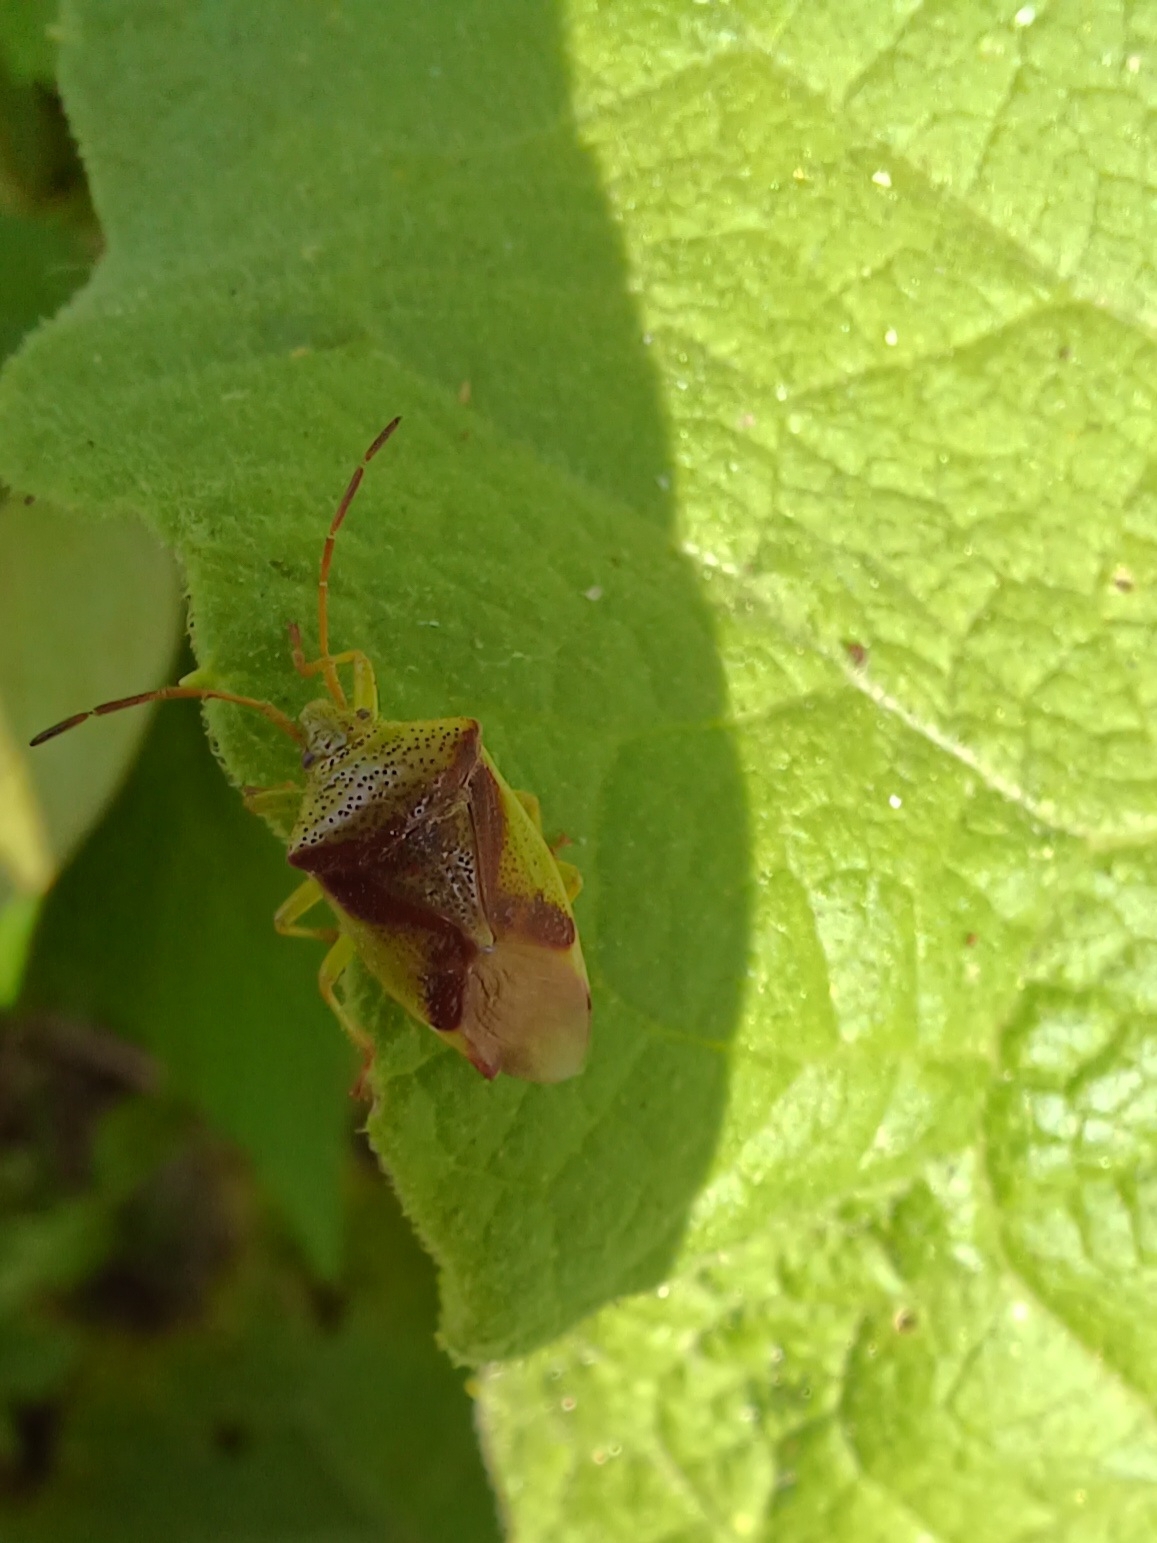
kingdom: Animalia
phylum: Arthropoda
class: Insecta
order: Hemiptera
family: Acanthosomatidae
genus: Elasmostethus
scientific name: Elasmostethus cruciatus
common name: Red-cross shield bug
